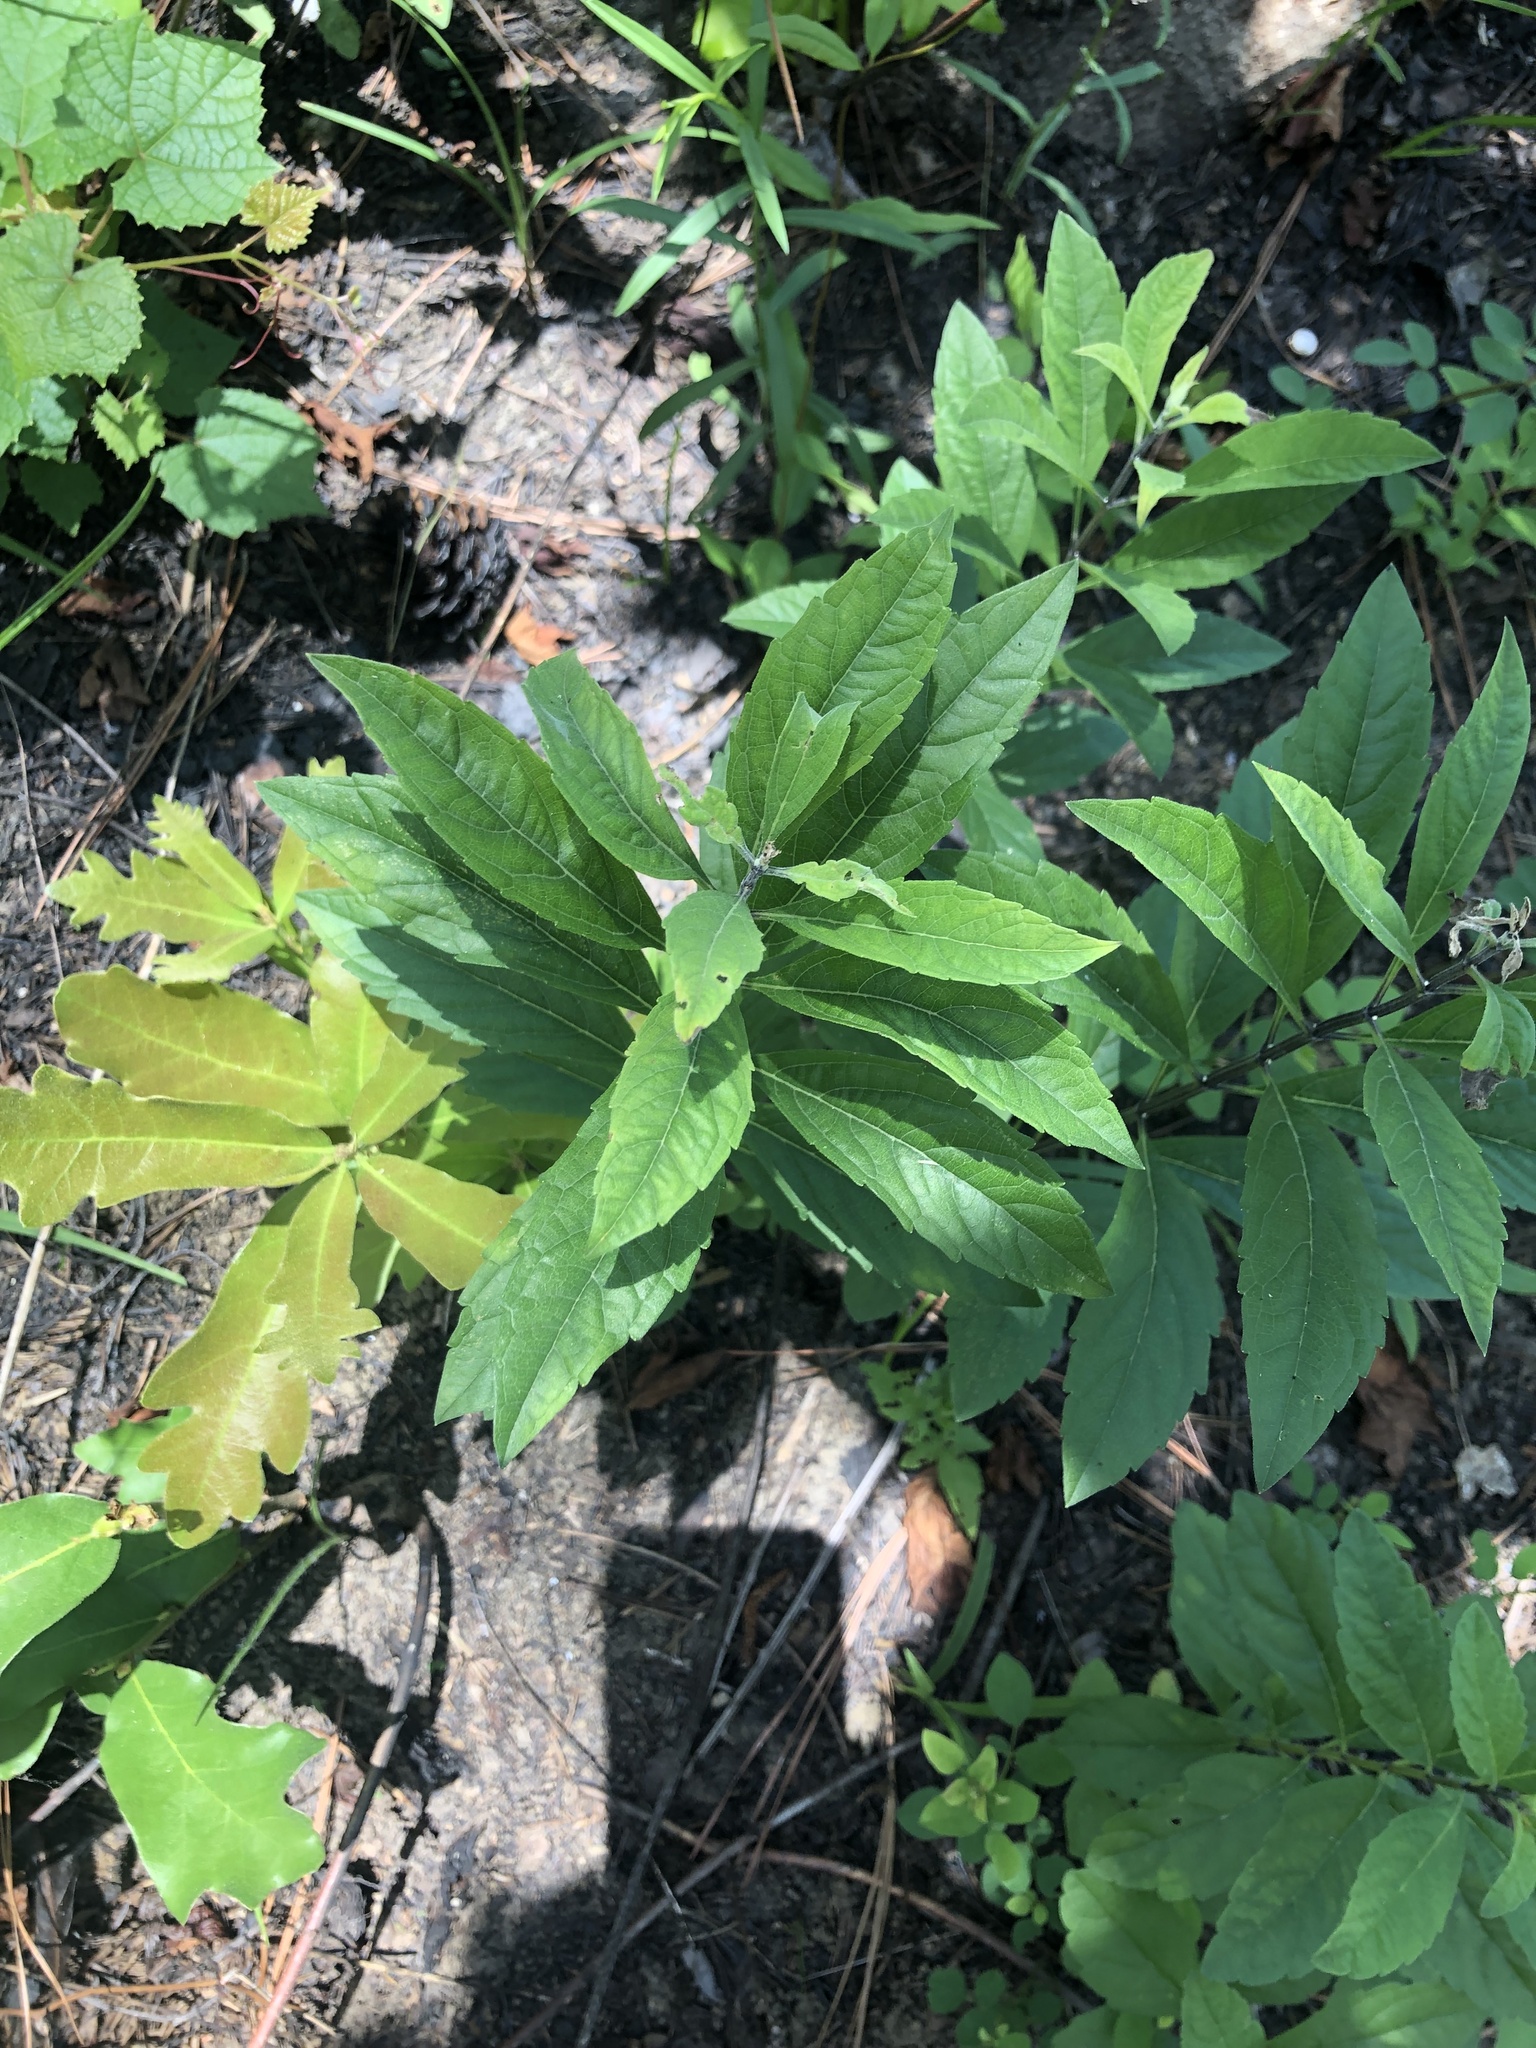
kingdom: Plantae
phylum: Tracheophyta
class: Magnoliopsida
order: Lamiales
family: Lamiaceae
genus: Salvia
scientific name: Salvia azurea
